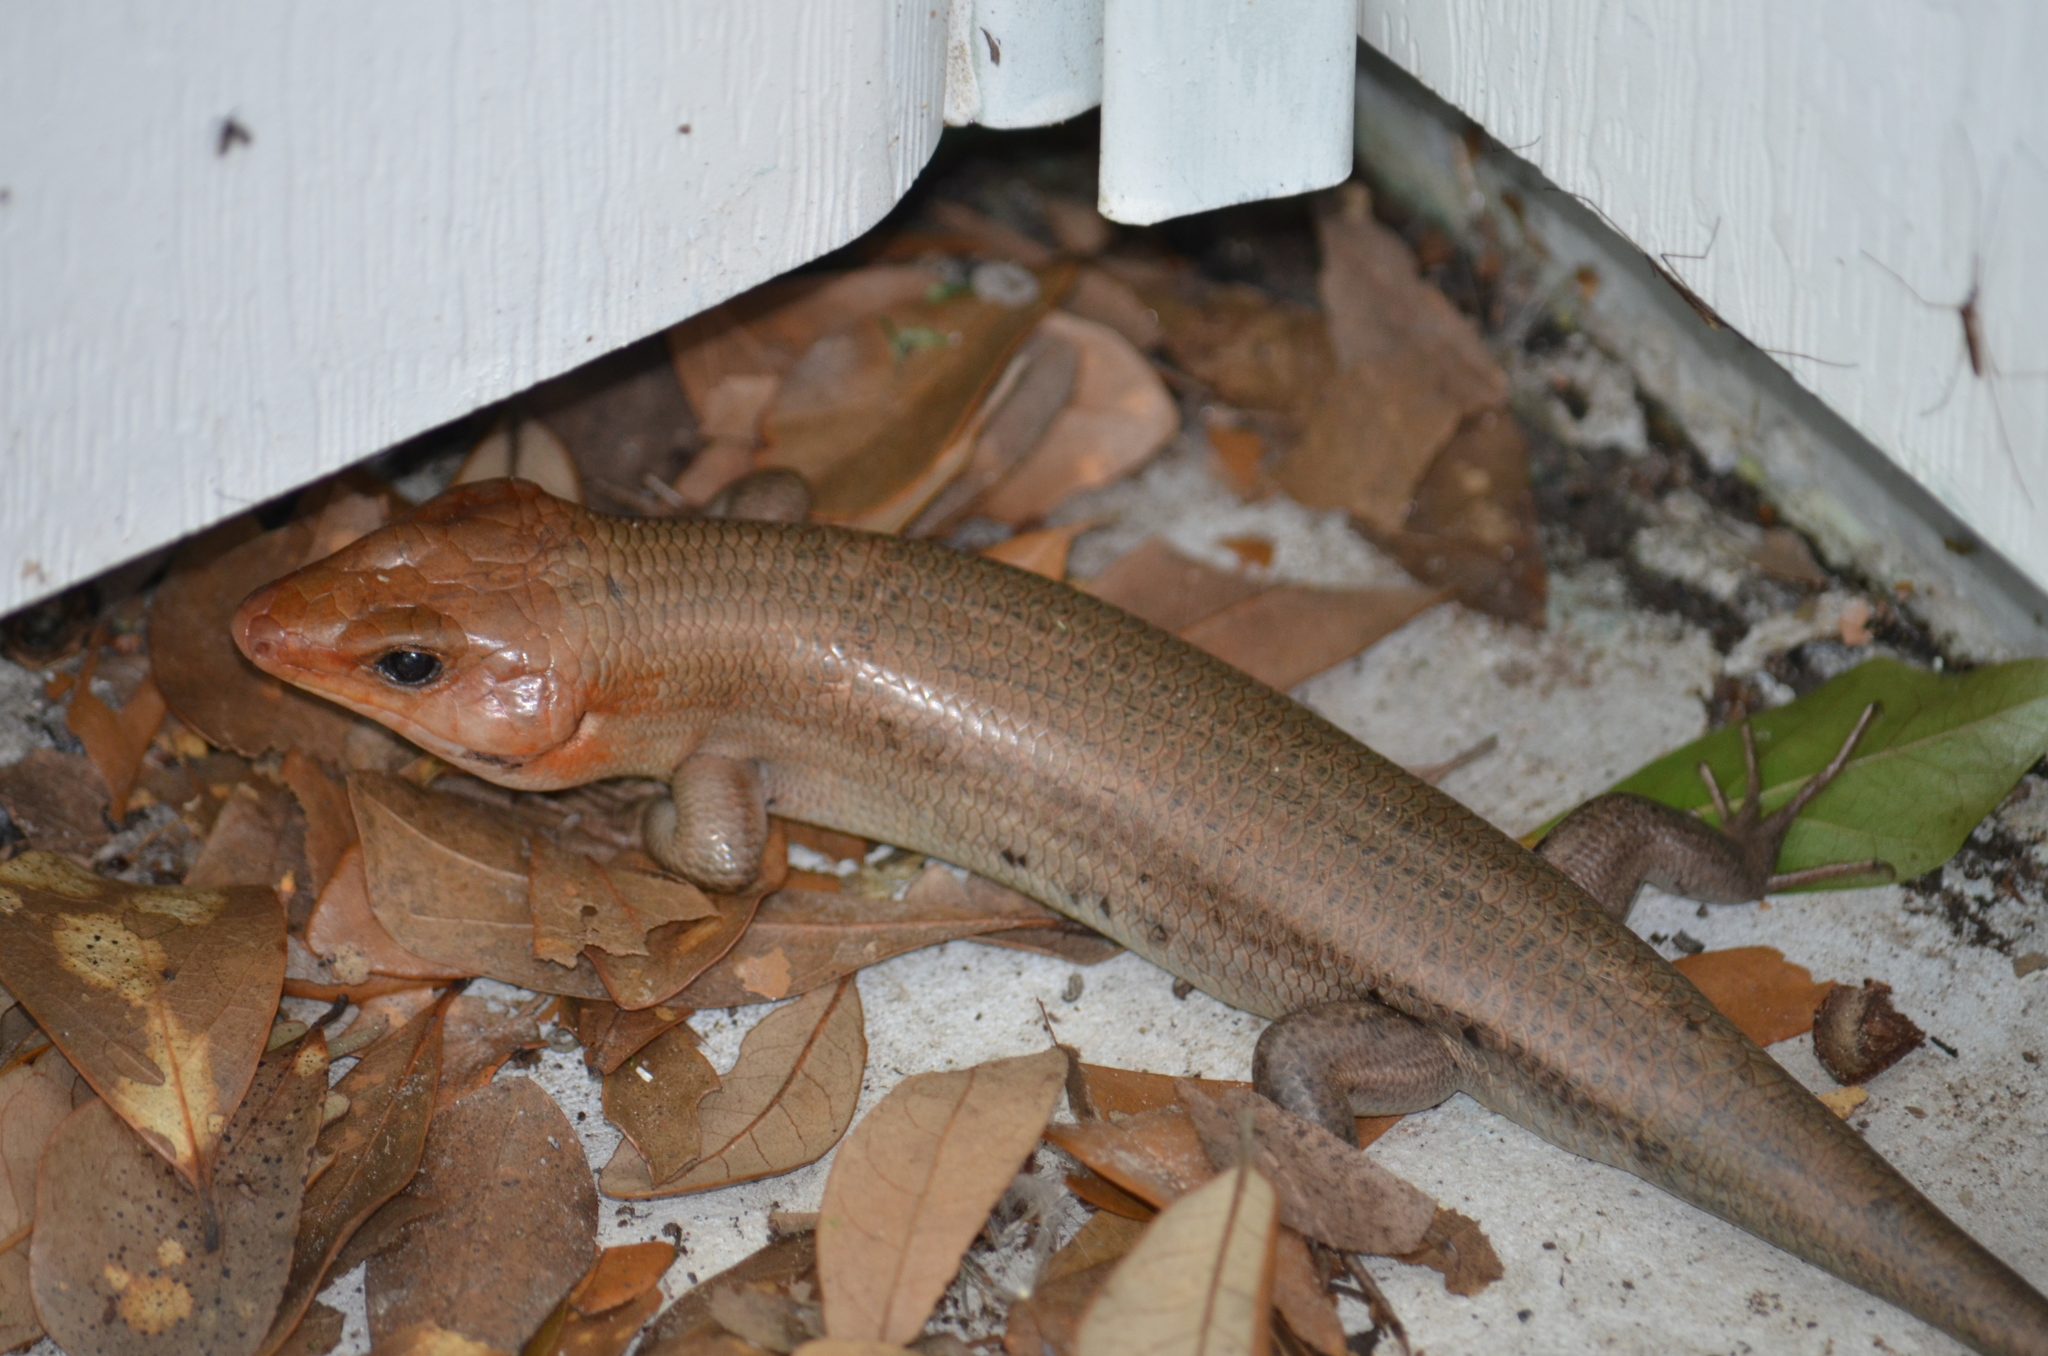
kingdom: Animalia
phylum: Chordata
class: Squamata
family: Scincidae
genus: Plestiodon
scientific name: Plestiodon laticeps
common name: Broadhead skink
